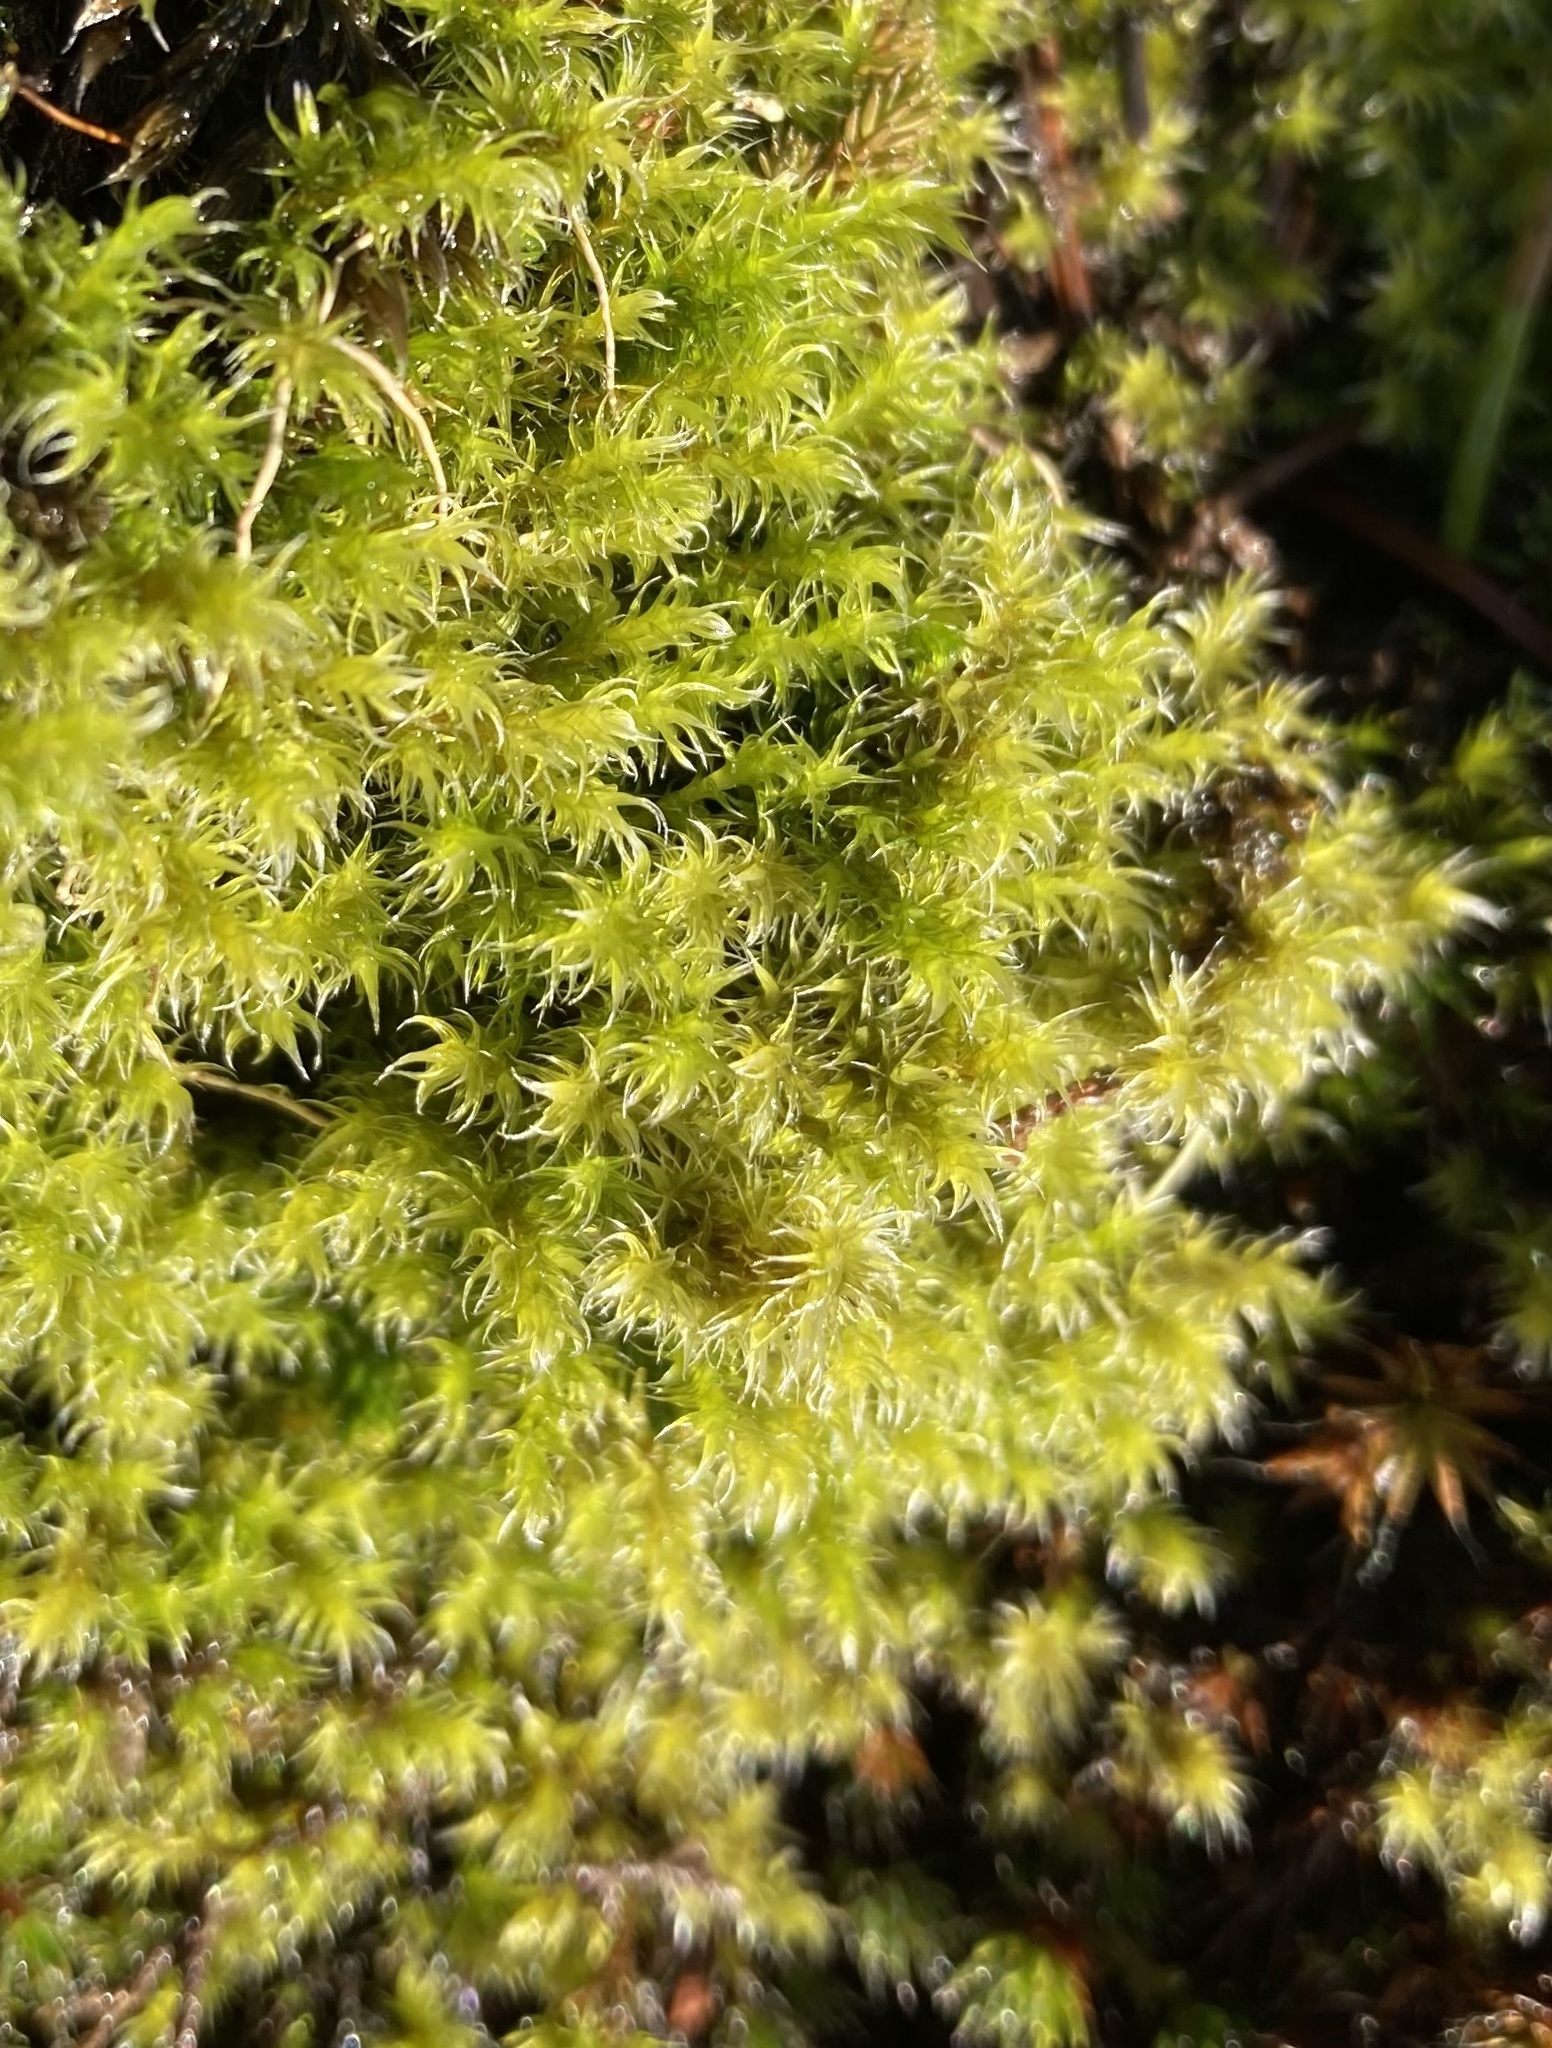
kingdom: Plantae
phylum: Bryophyta
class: Bryopsida
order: Grimmiales
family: Grimmiaceae
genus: Niphotrichum
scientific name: Niphotrichum elongatum
